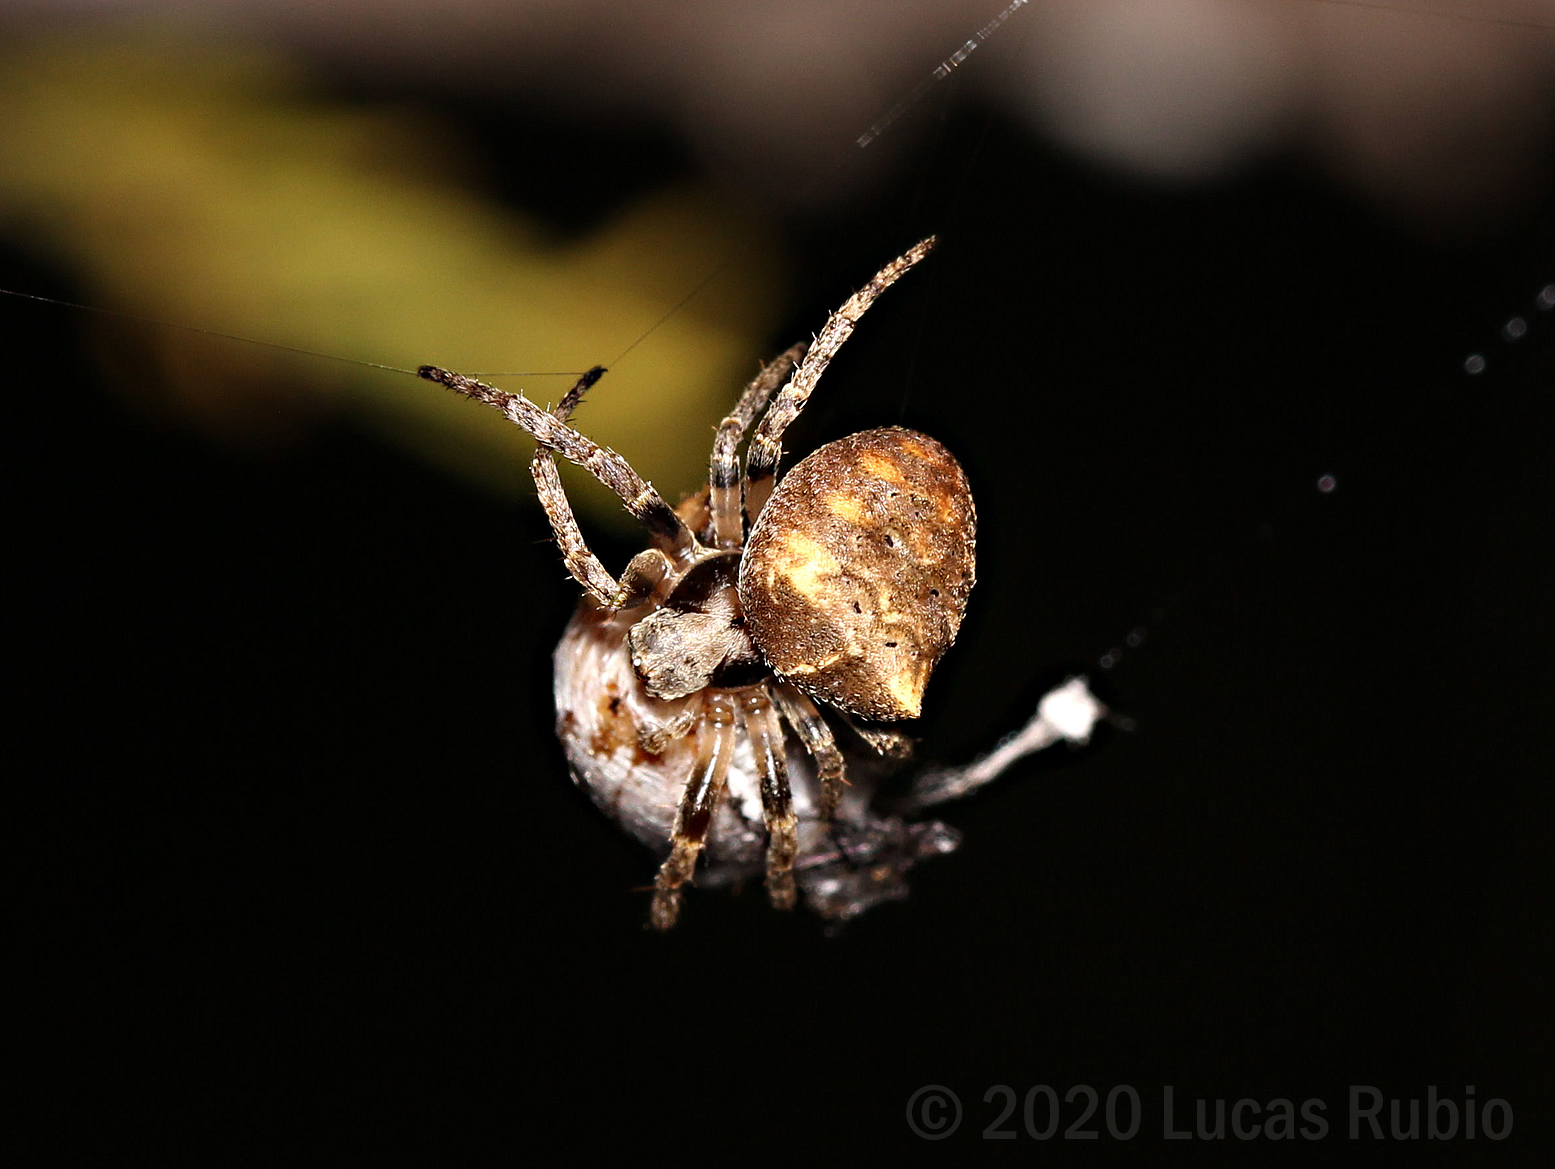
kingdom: Animalia
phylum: Arthropoda
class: Arachnida
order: Araneae
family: Araneidae
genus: Ocrepeira
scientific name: Ocrepeira
